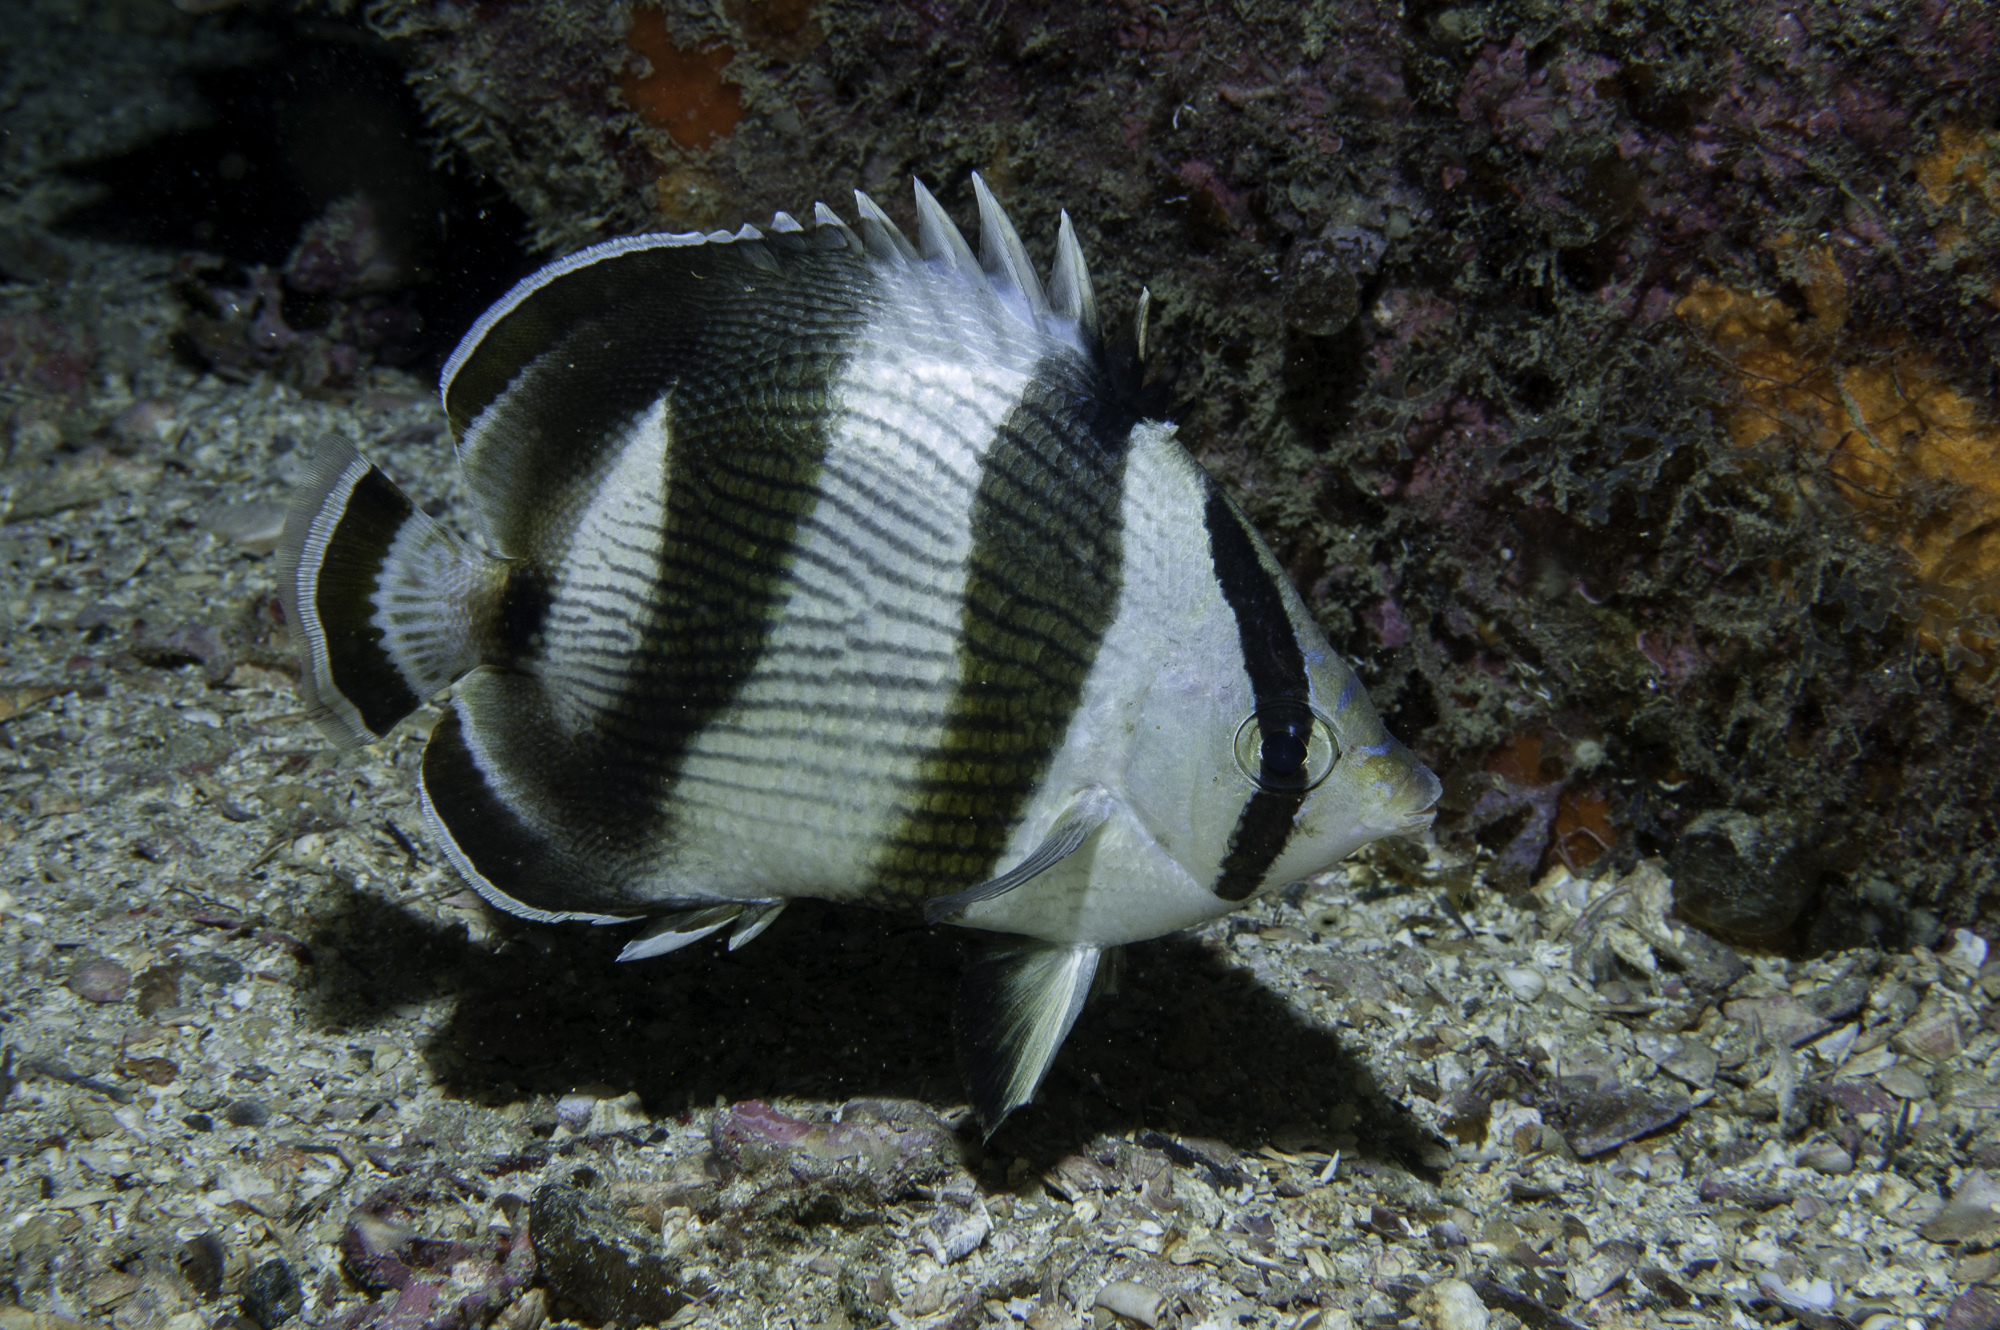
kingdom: Animalia
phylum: Chordata
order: Perciformes
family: Chaetodontidae
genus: Chaetodon
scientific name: Chaetodon striatus
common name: Banded butterflyfish
